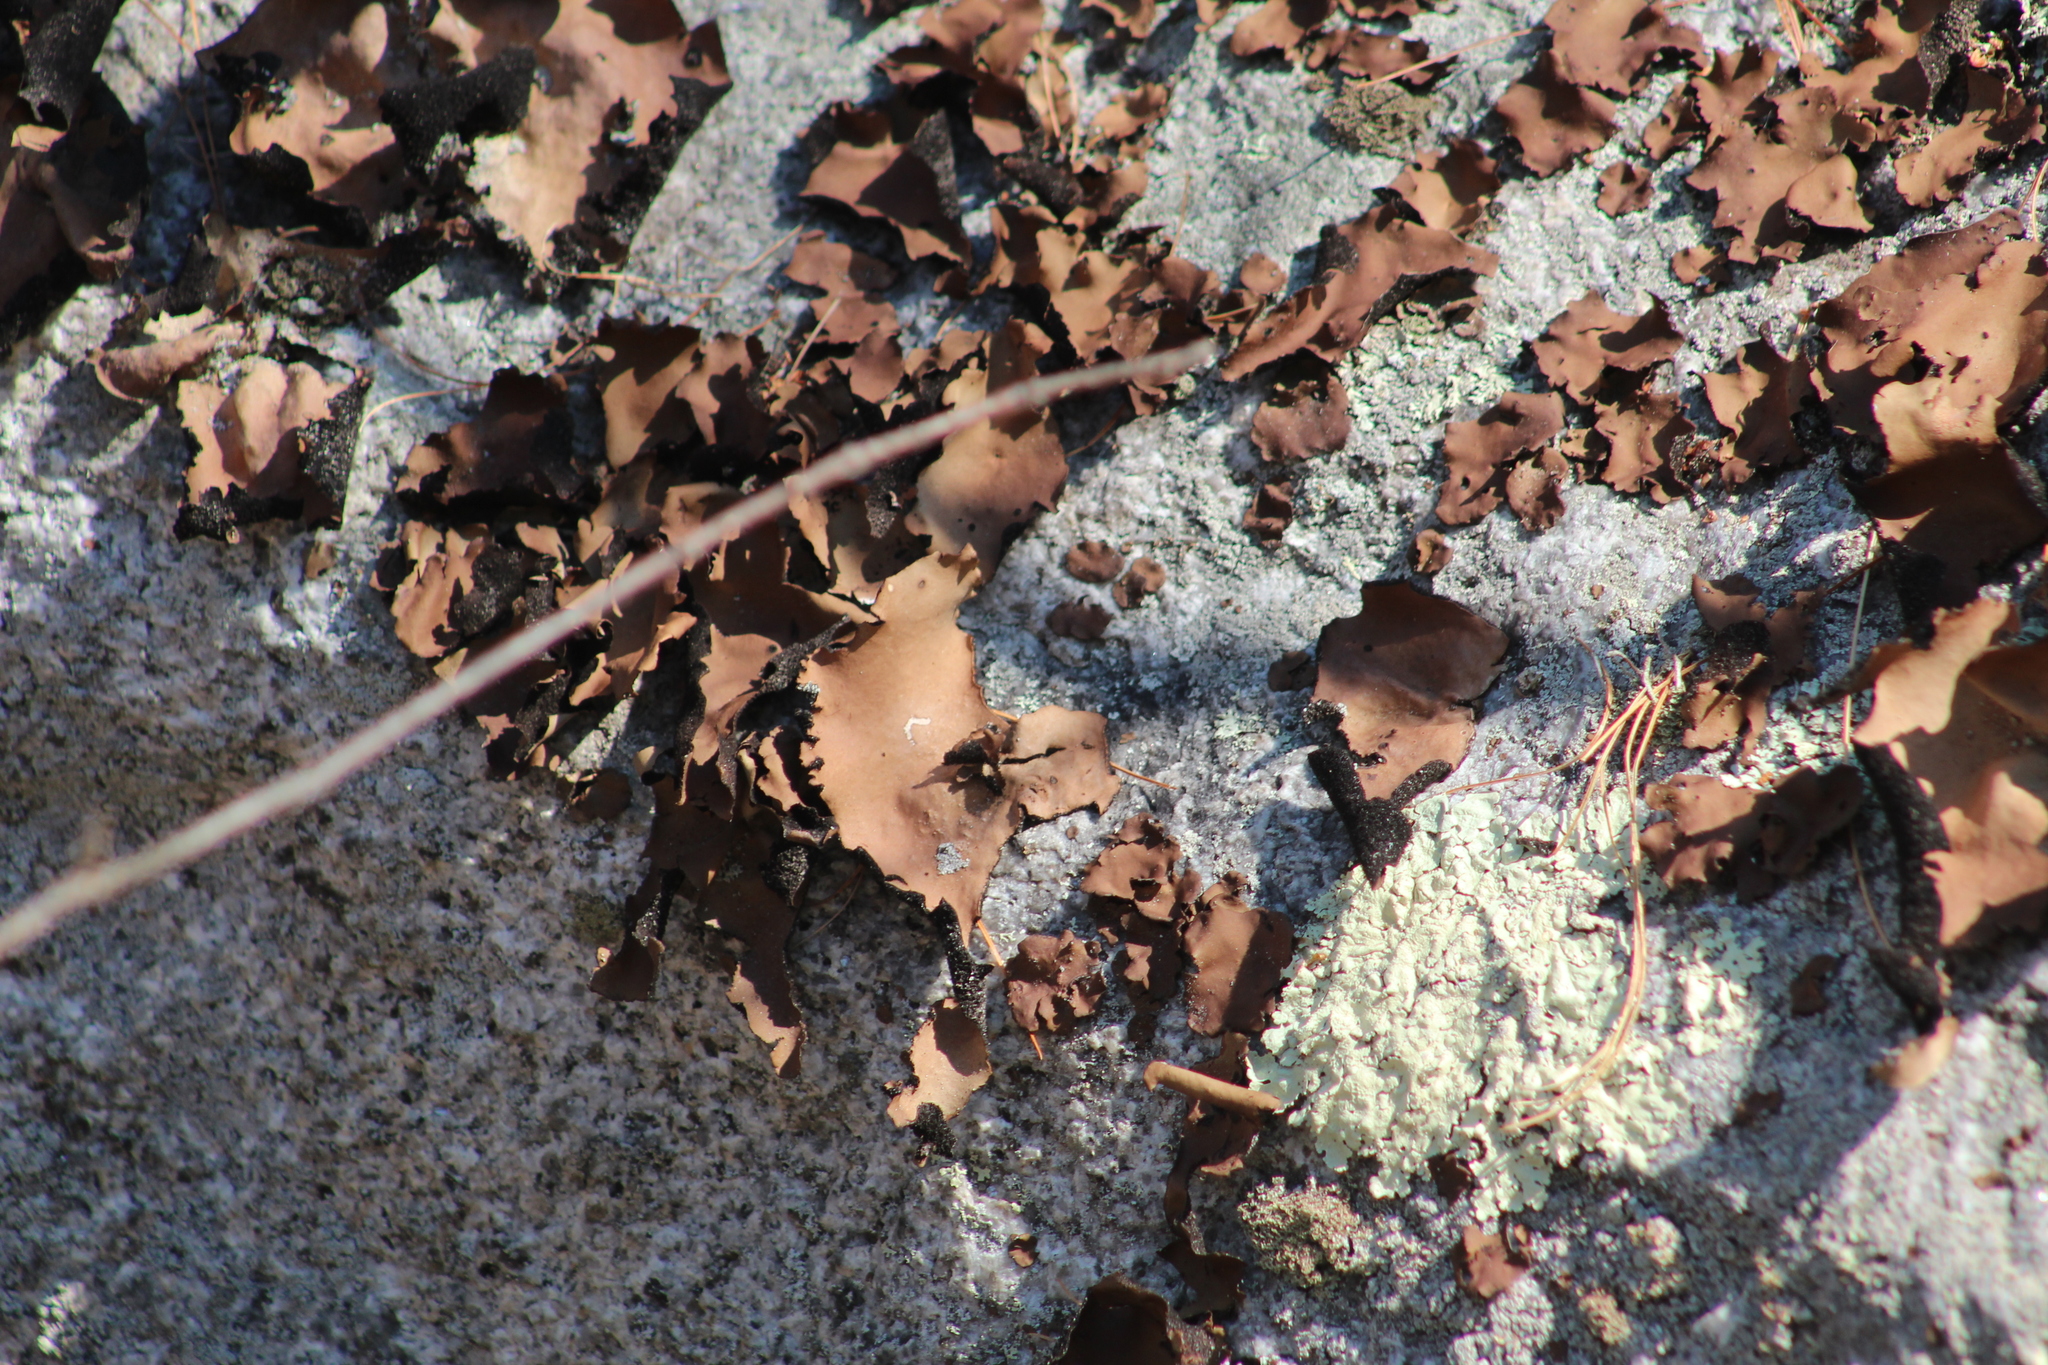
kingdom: Fungi
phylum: Ascomycota
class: Lecanoromycetes
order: Umbilicariales
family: Umbilicariaceae
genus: Umbilicaria
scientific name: Umbilicaria mammulata
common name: Smooth rock tripe
